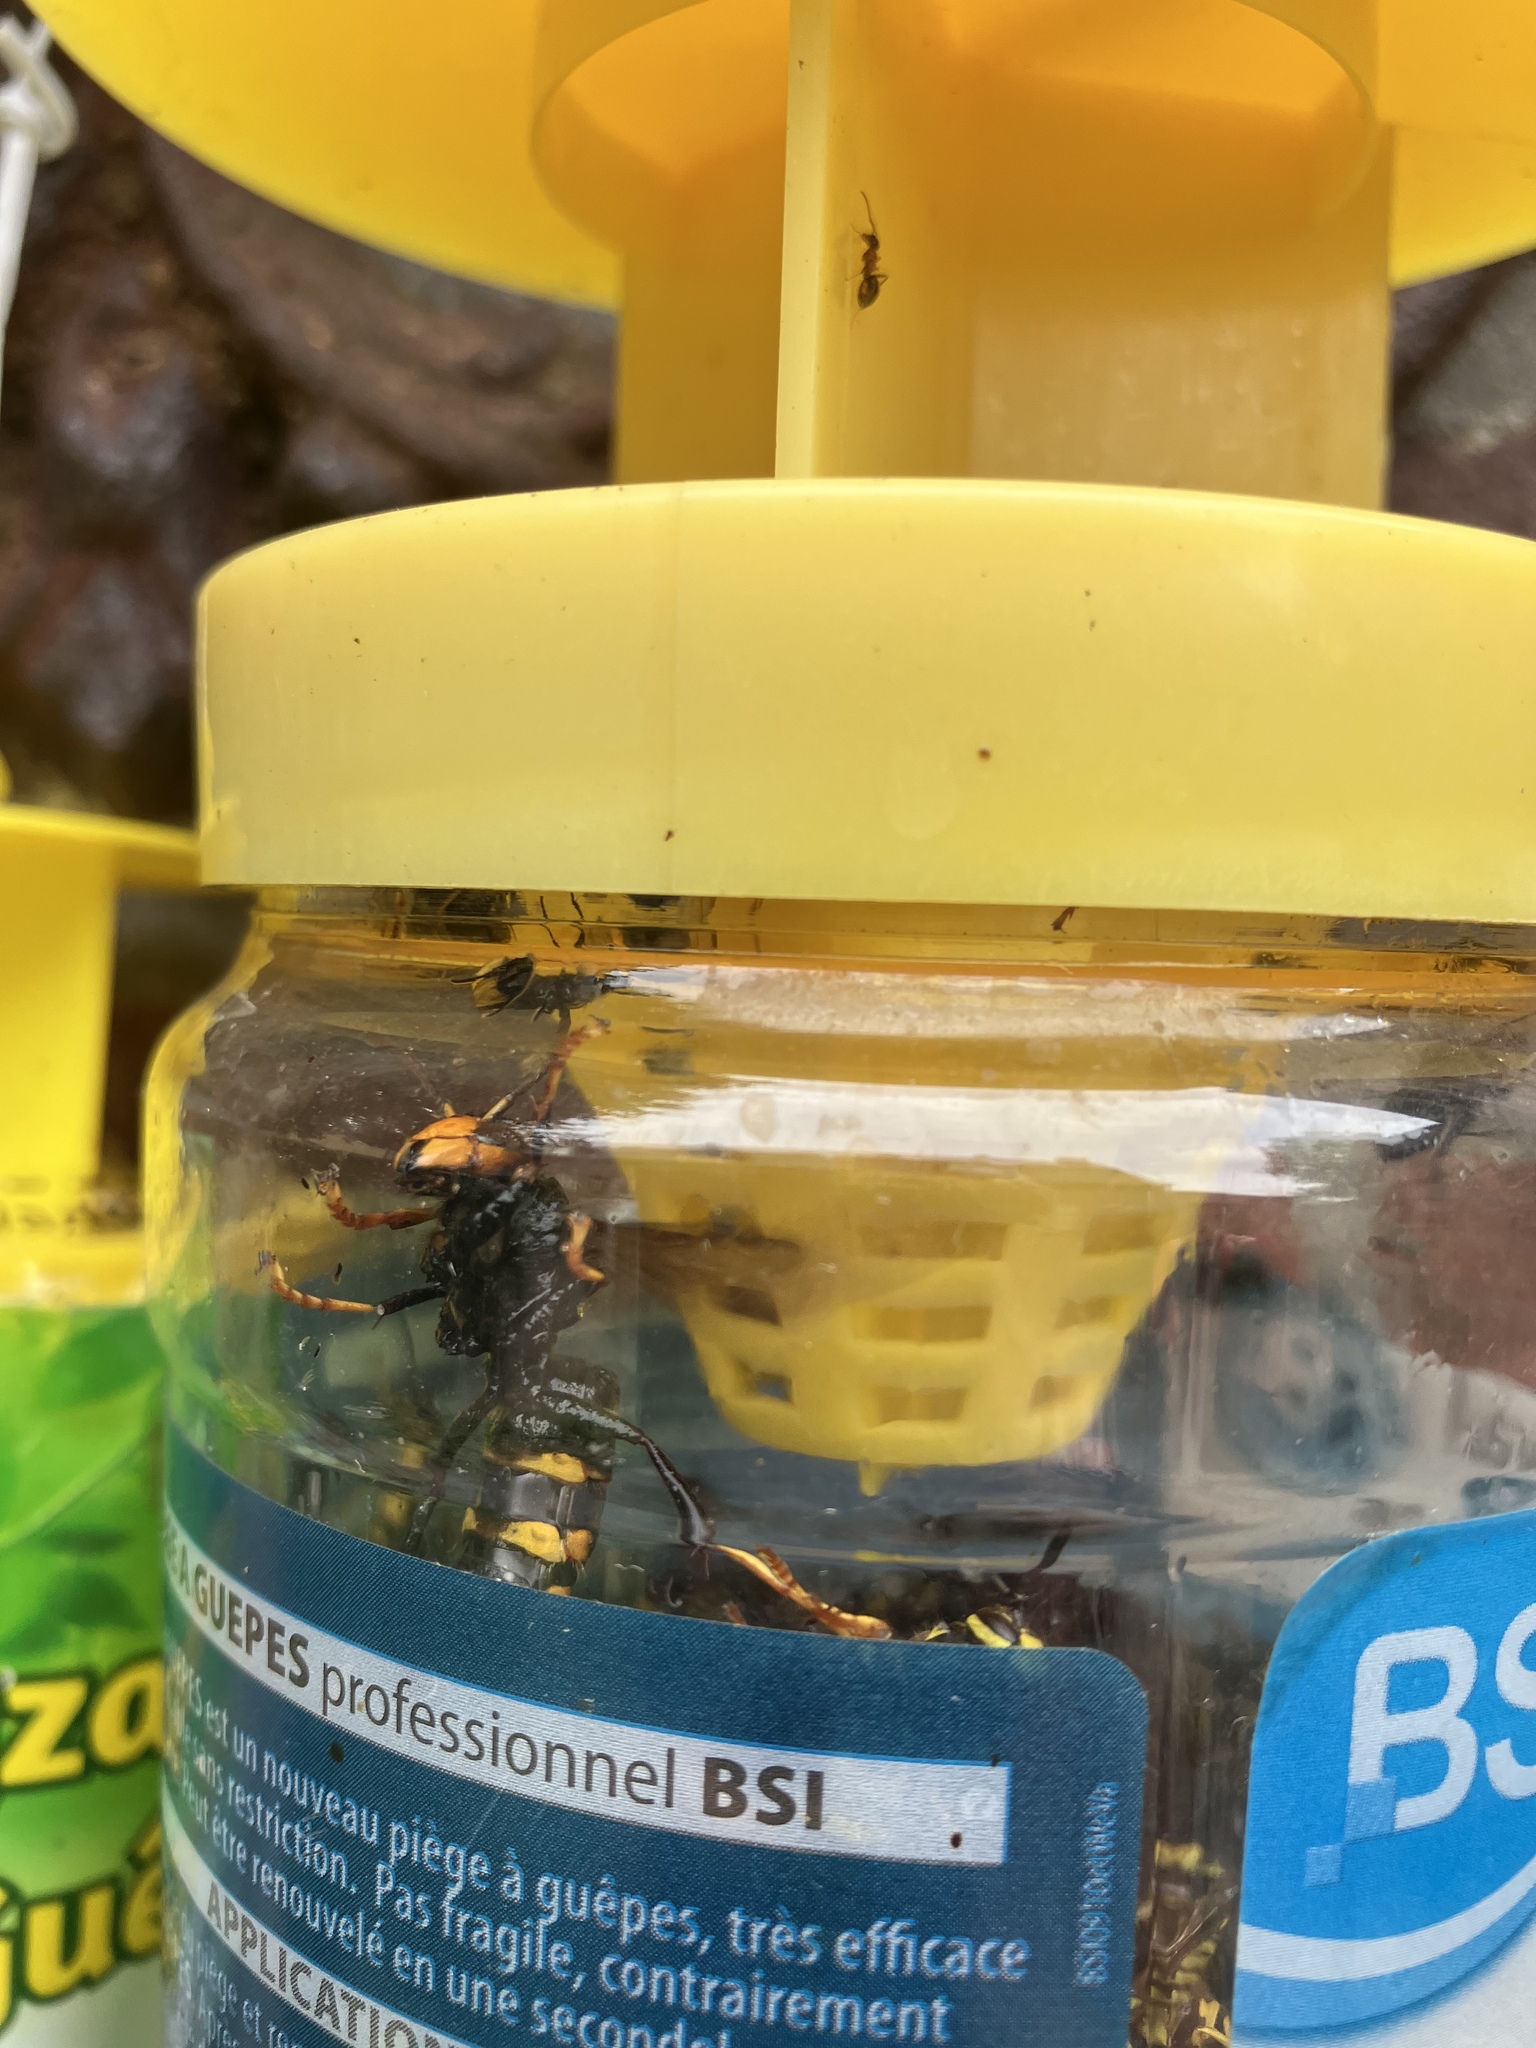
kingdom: Animalia
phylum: Arthropoda
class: Insecta
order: Hymenoptera
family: Vespidae
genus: Vespa
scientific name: Vespa velutina
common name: Asian hornet
